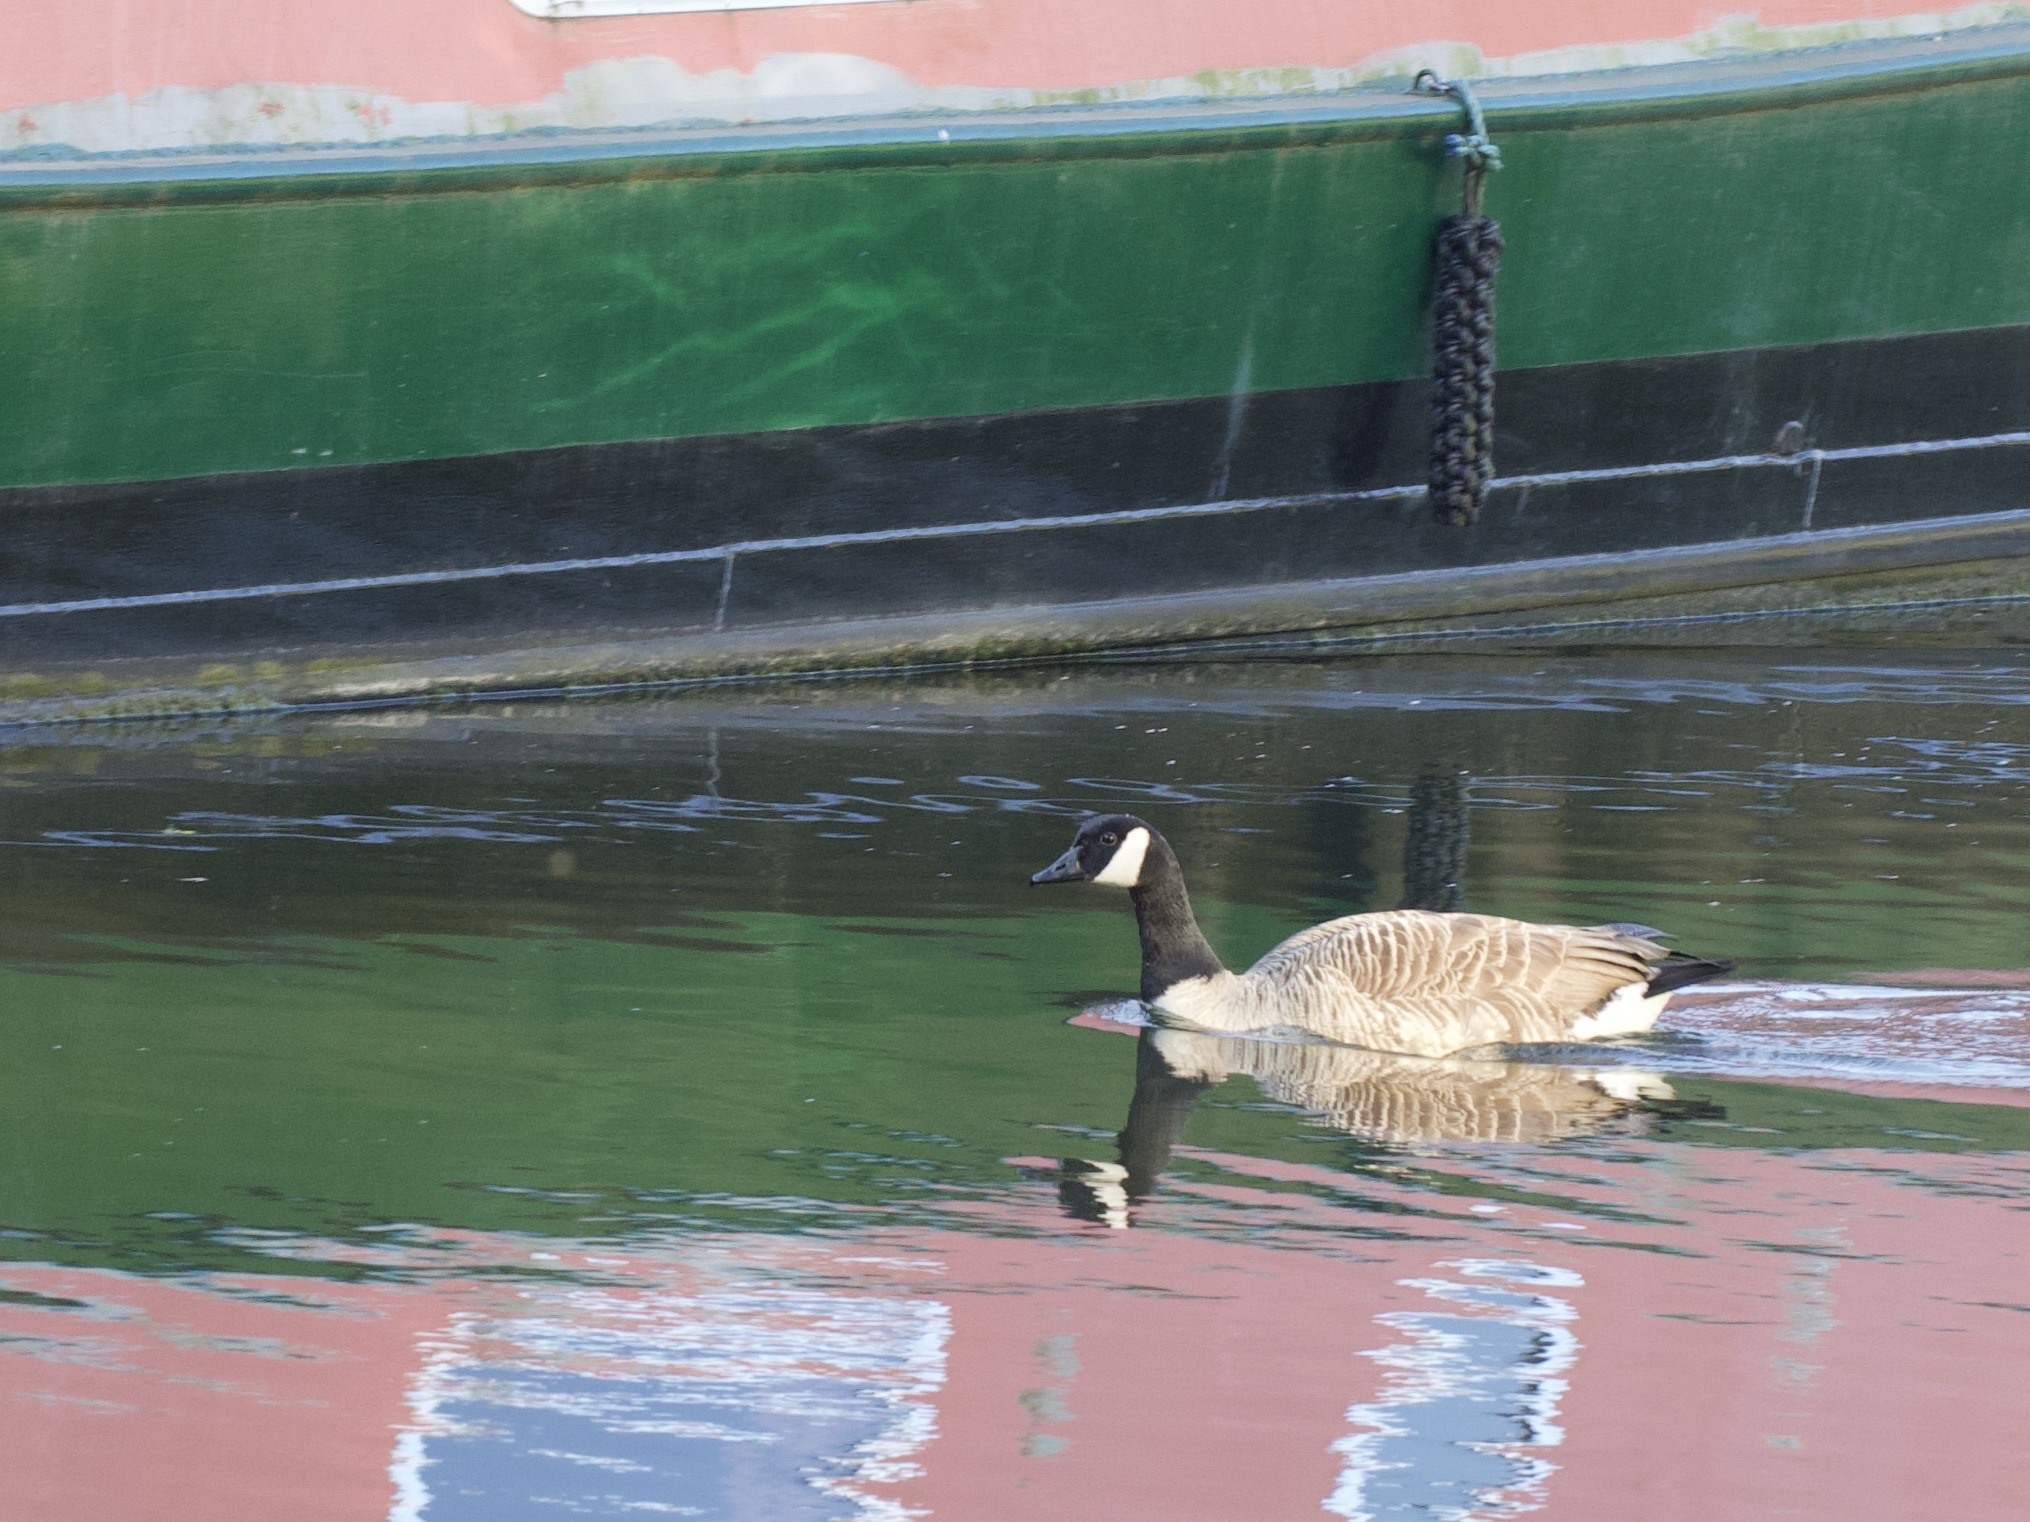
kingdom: Animalia
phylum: Chordata
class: Aves
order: Anseriformes
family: Anatidae
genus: Branta
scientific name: Branta canadensis
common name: Canada goose
